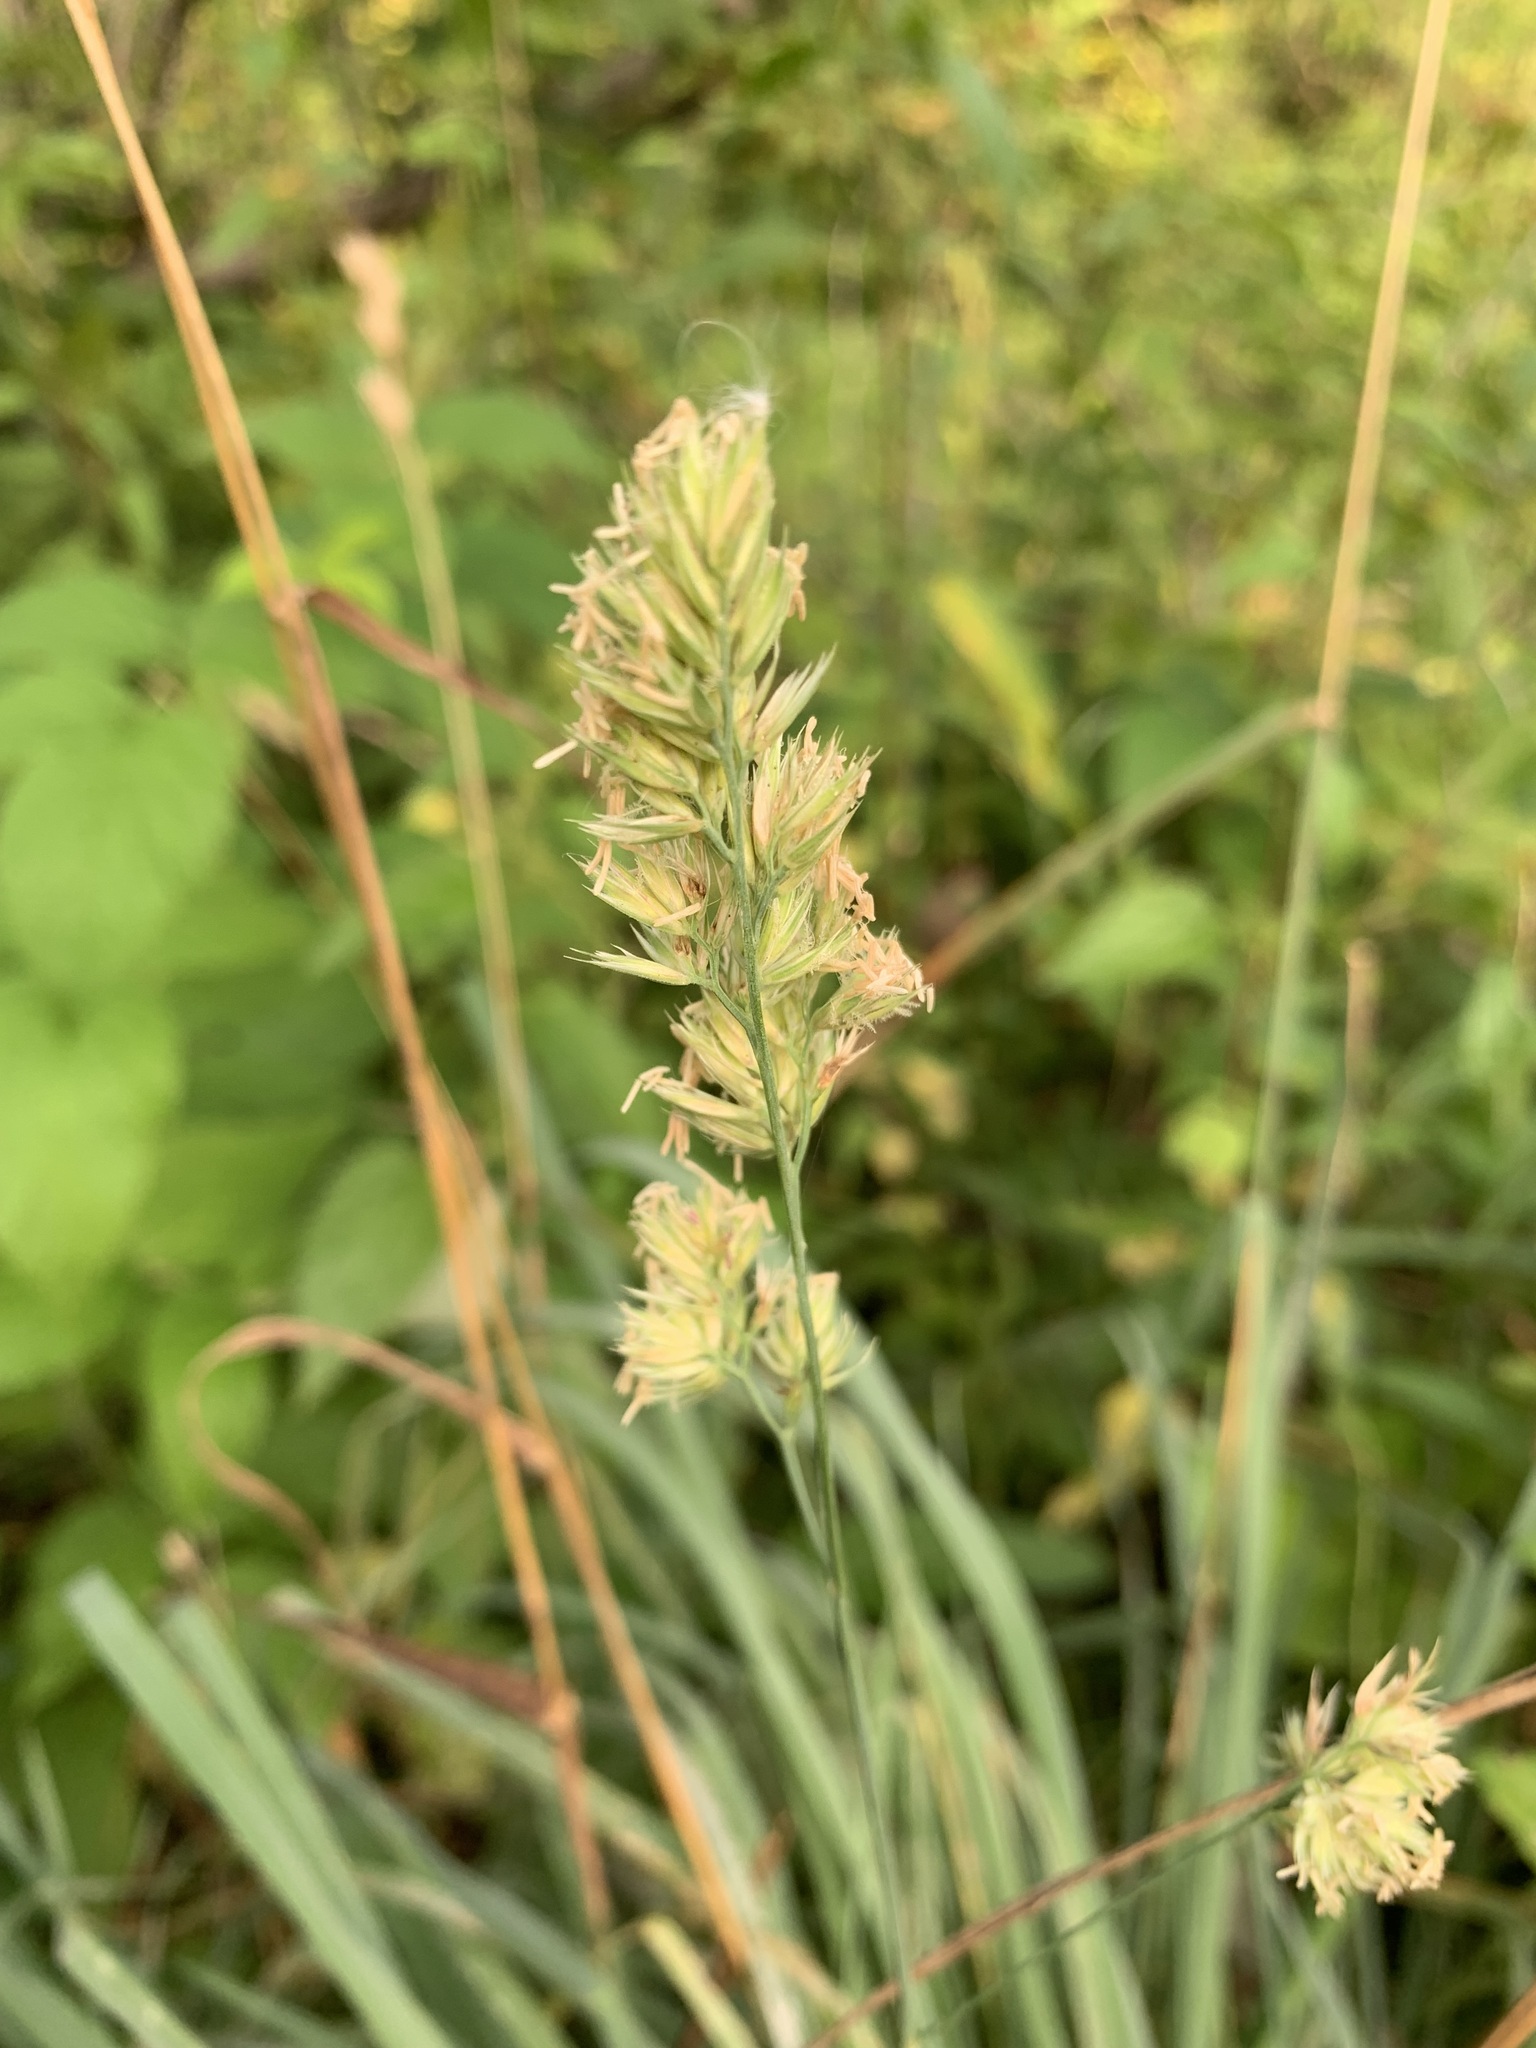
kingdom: Plantae
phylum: Tracheophyta
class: Liliopsida
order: Poales
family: Poaceae
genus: Dactylis
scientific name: Dactylis glomerata
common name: Orchardgrass
